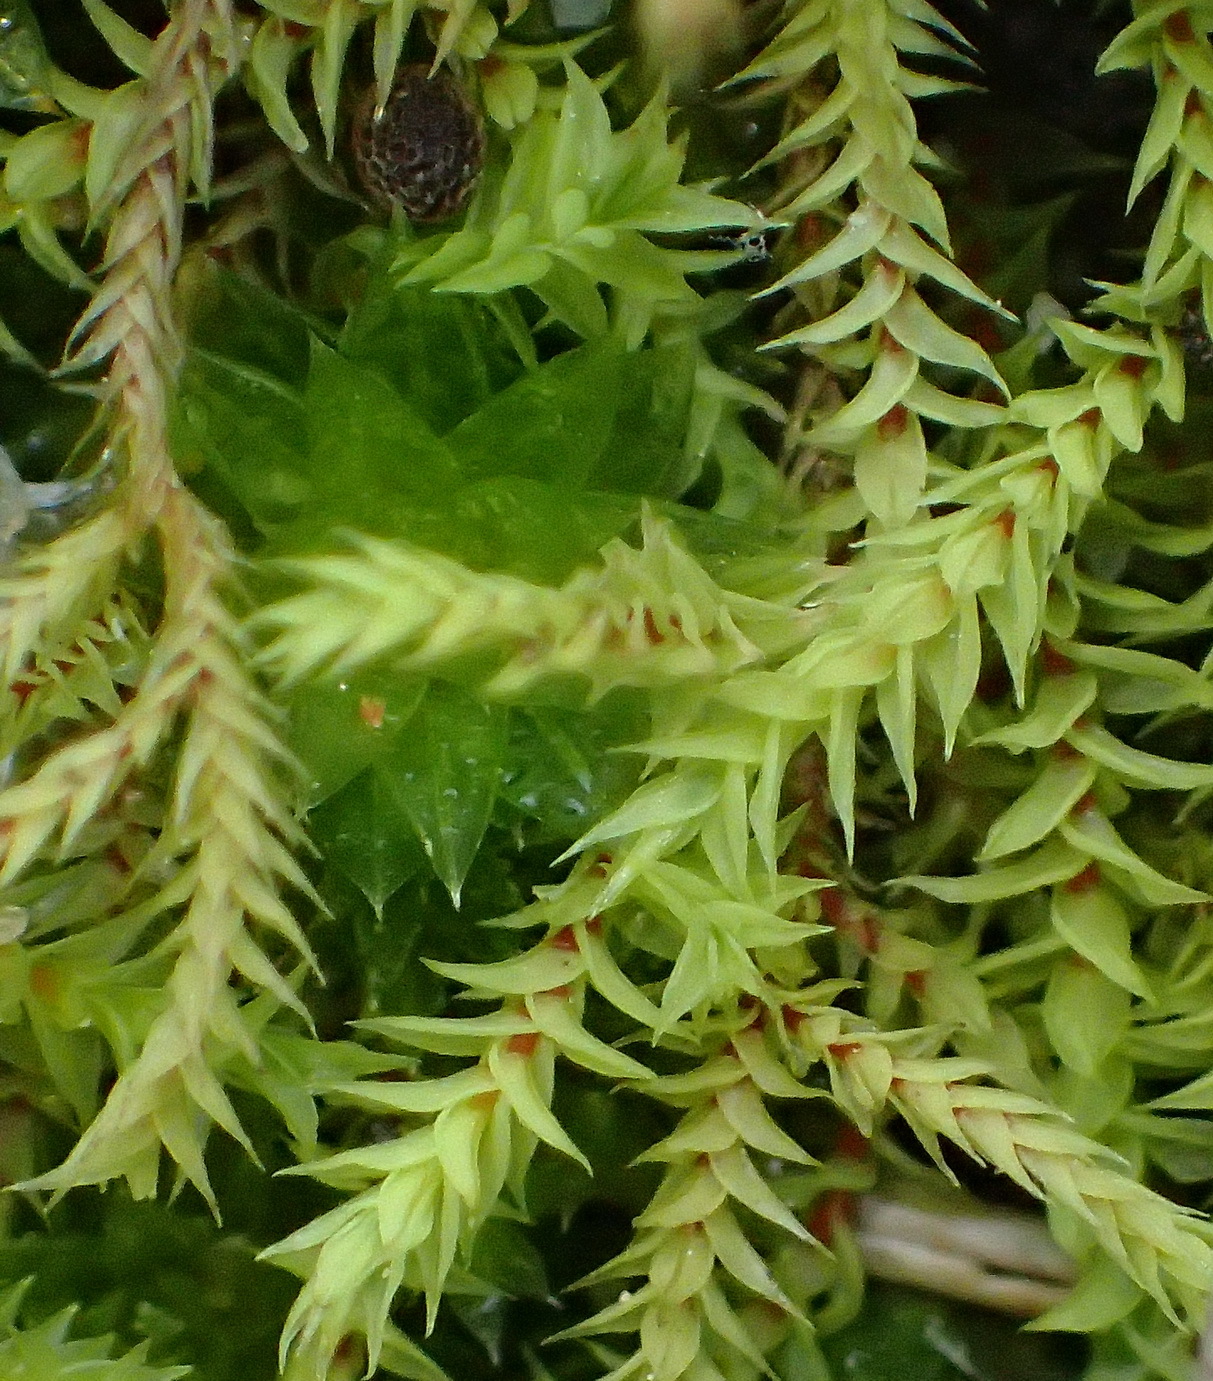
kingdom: Plantae
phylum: Bryophyta
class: Bryopsida
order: Pottiales
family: Pottiaceae
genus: Triquetrella
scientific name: Triquetrella tristicha
